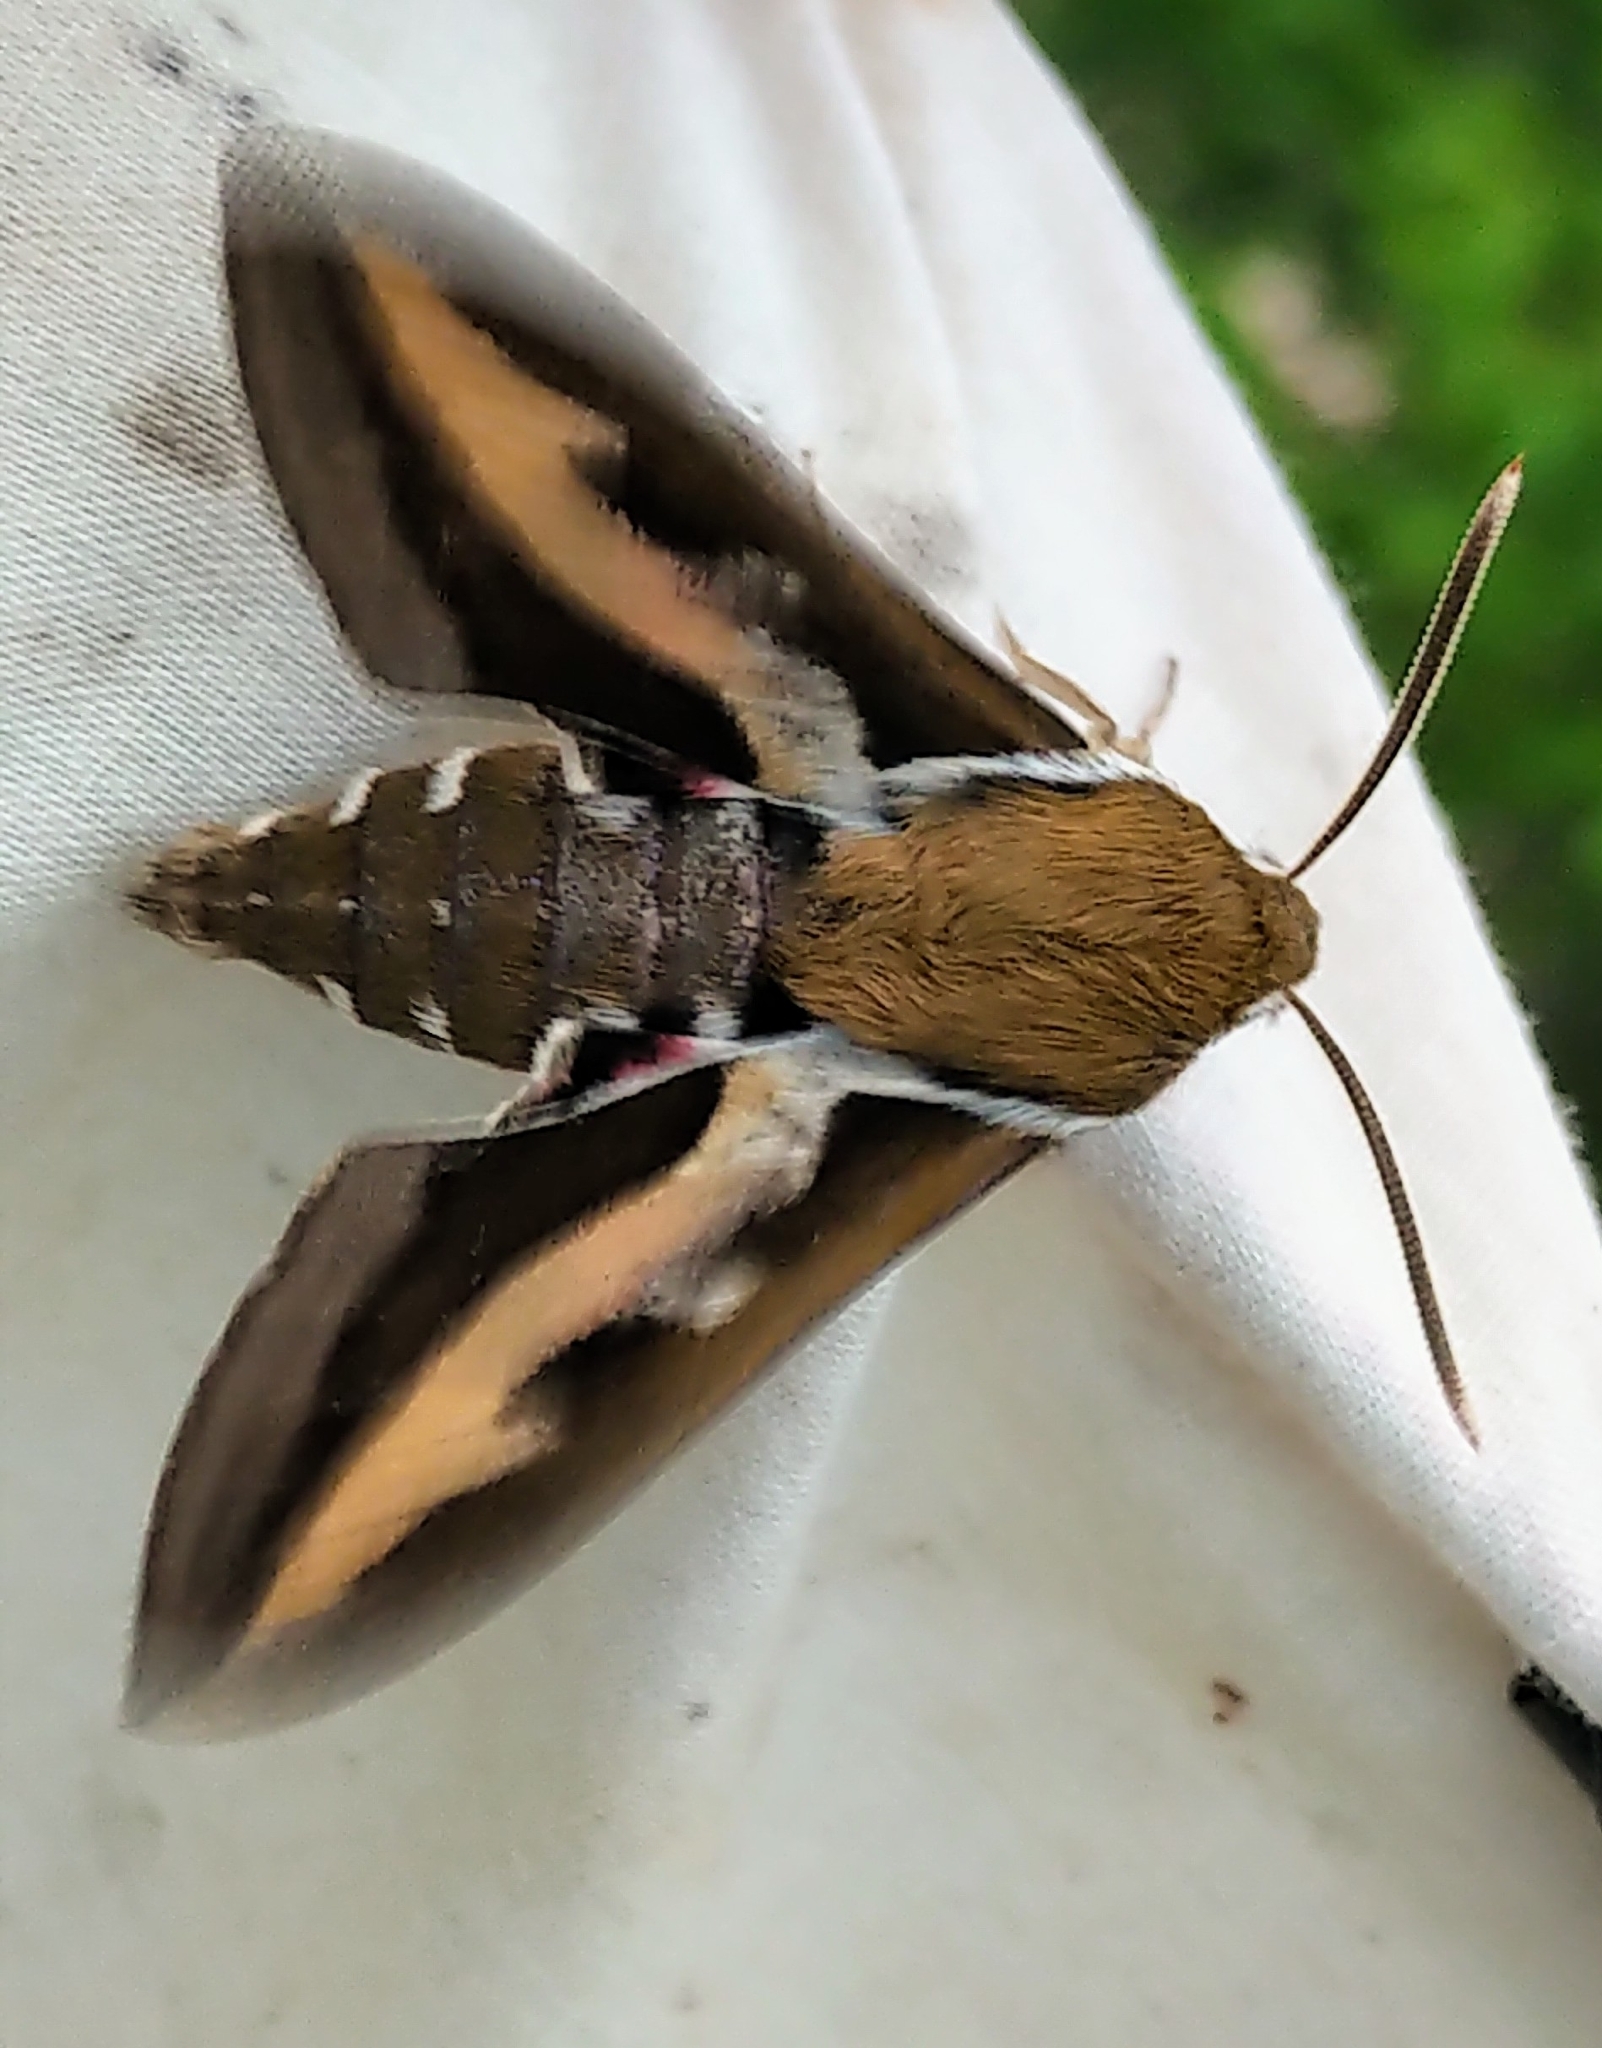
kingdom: Animalia
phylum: Arthropoda
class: Insecta
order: Lepidoptera
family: Sphingidae
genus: Hyles
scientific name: Hyles gallii
